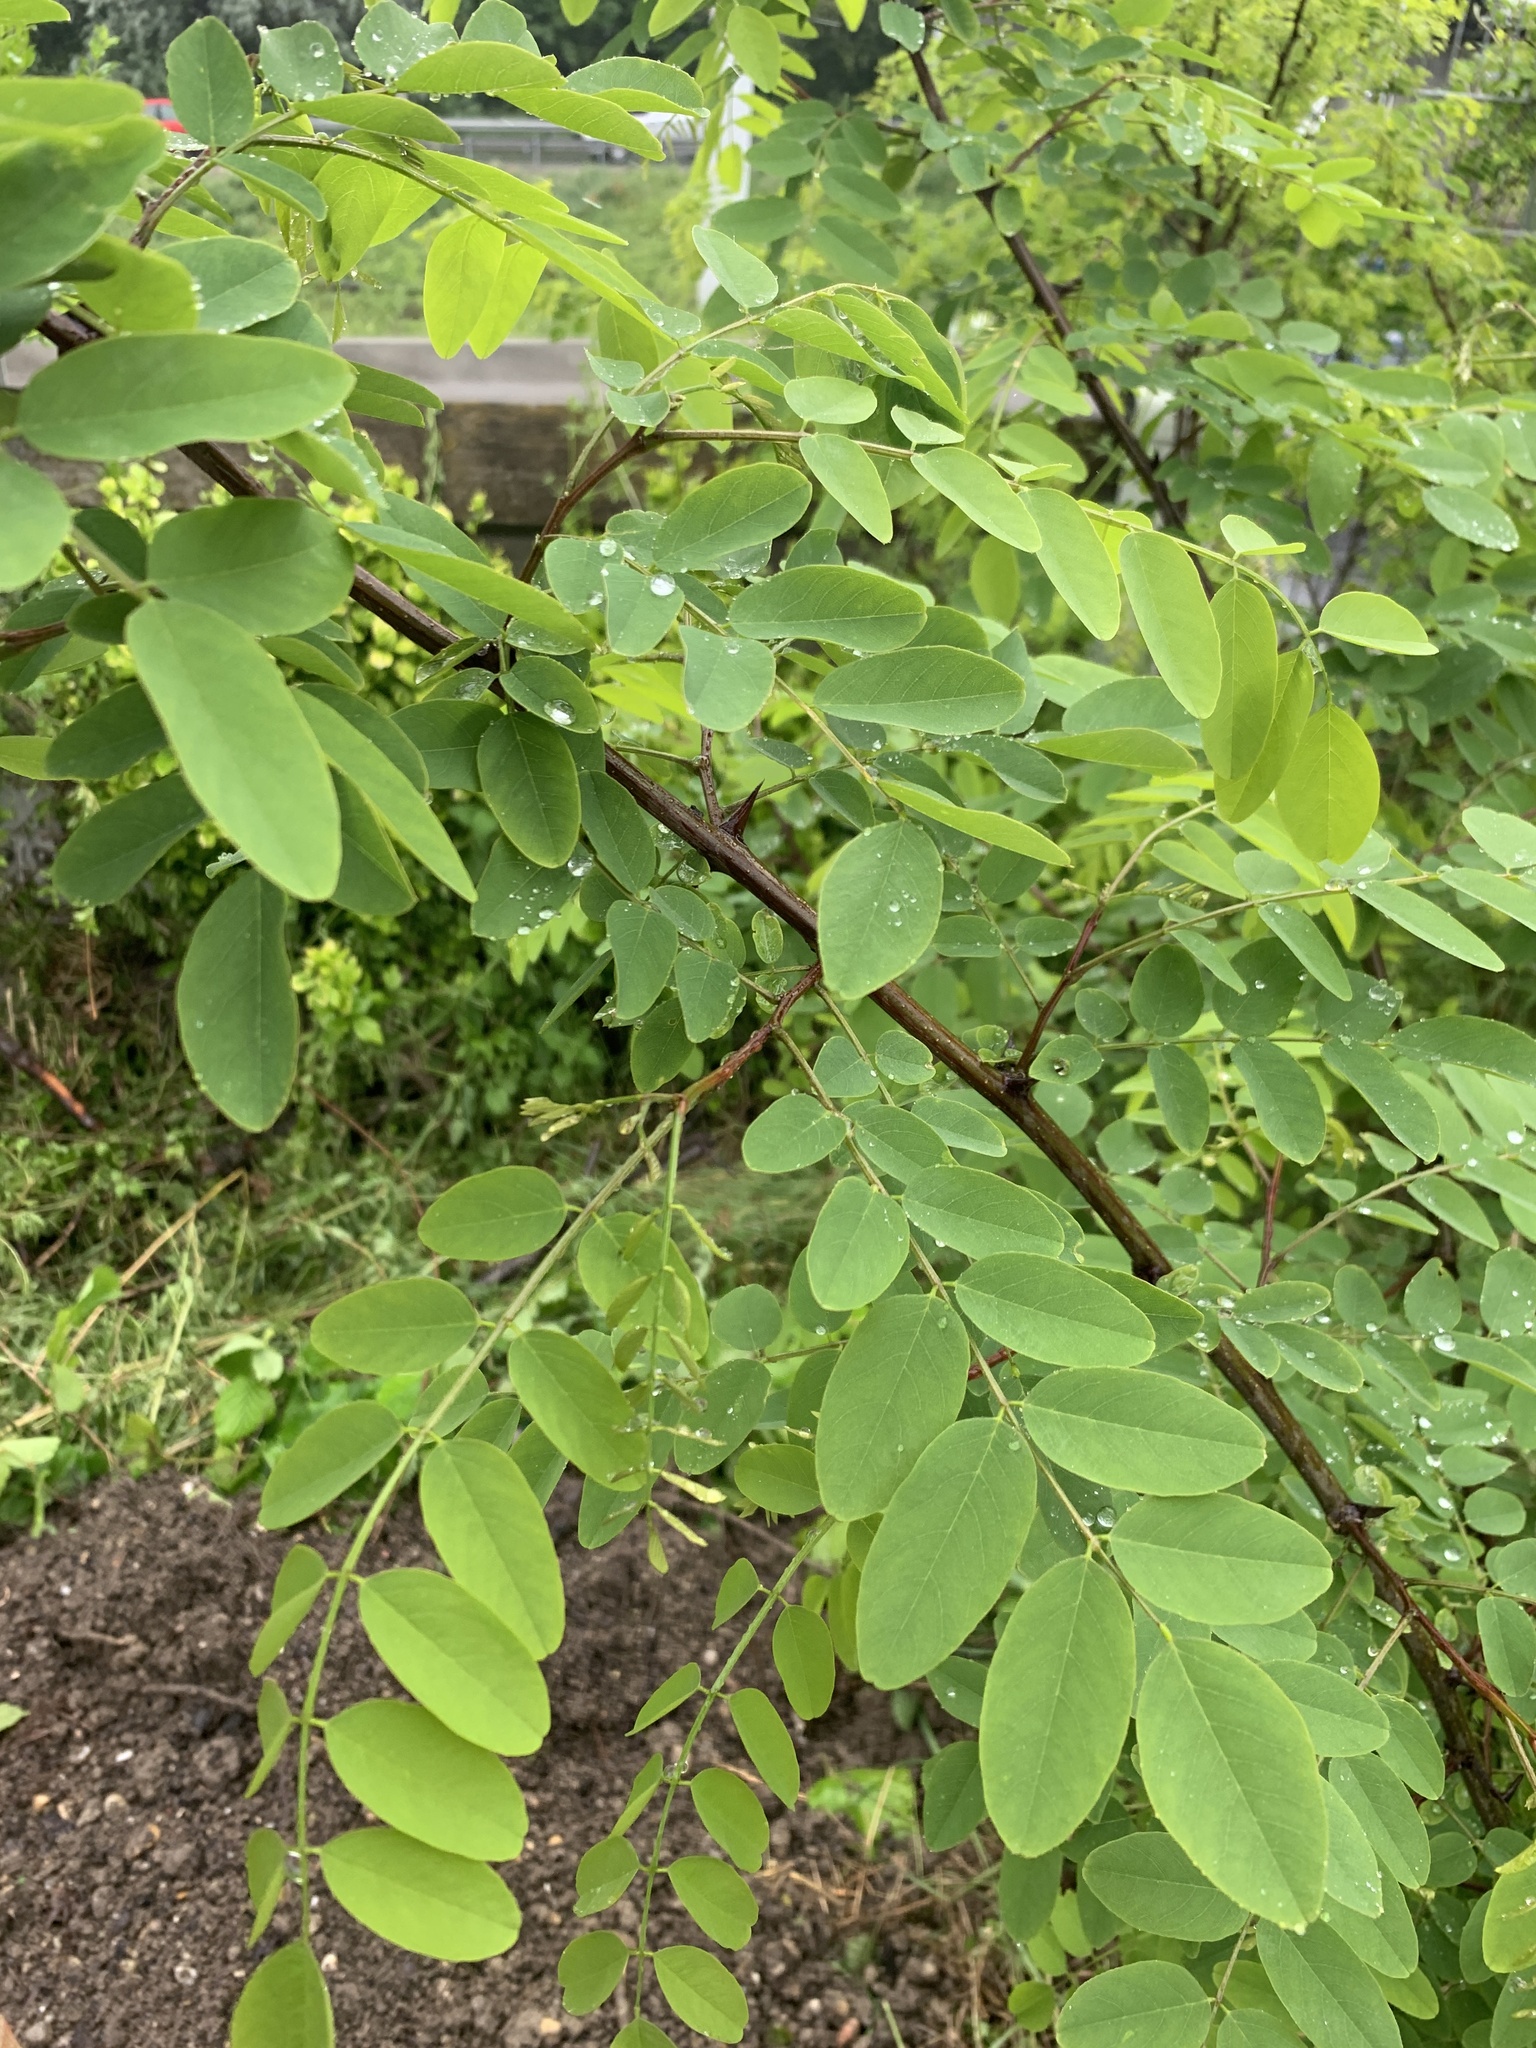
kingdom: Plantae
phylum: Tracheophyta
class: Magnoliopsida
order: Fabales
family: Fabaceae
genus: Robinia
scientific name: Robinia pseudoacacia
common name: Black locust
